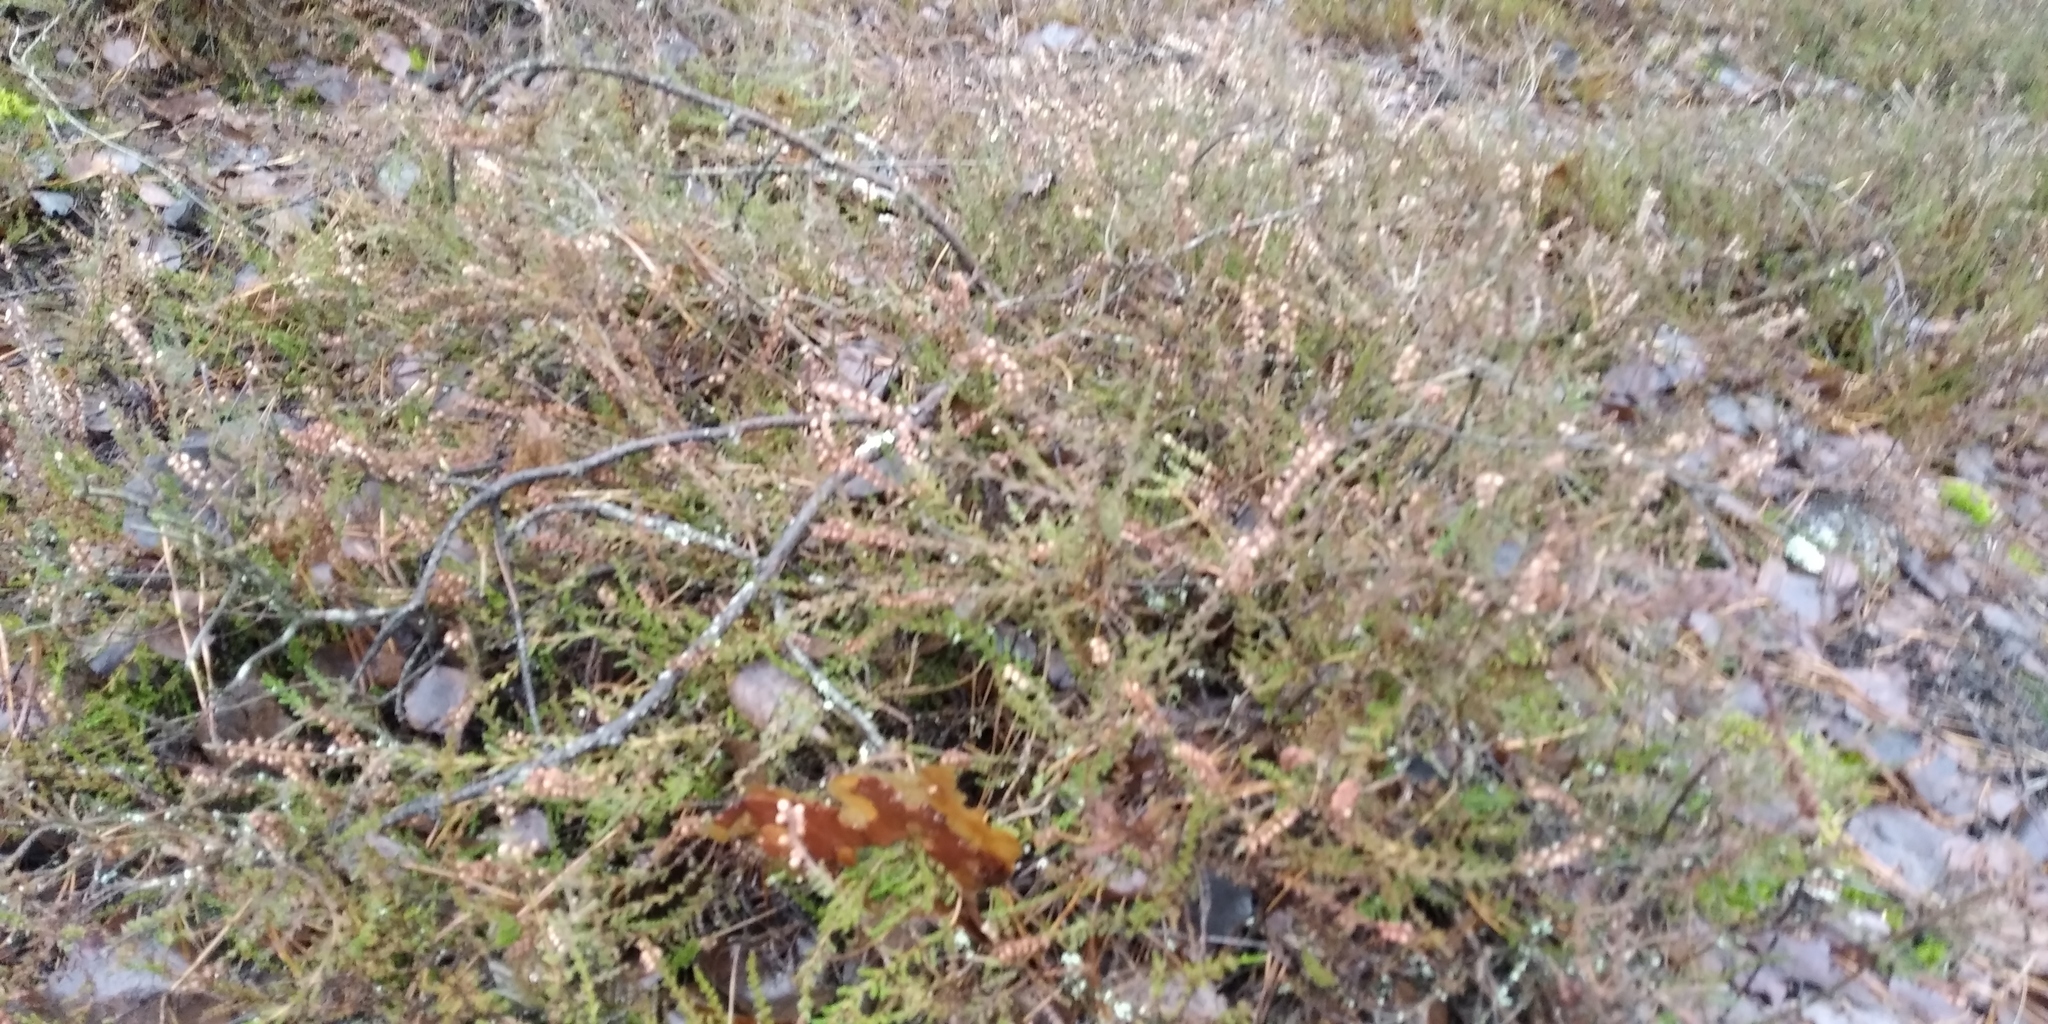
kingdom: Plantae
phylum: Tracheophyta
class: Magnoliopsida
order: Ericales
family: Ericaceae
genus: Calluna
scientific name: Calluna vulgaris
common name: Heather
